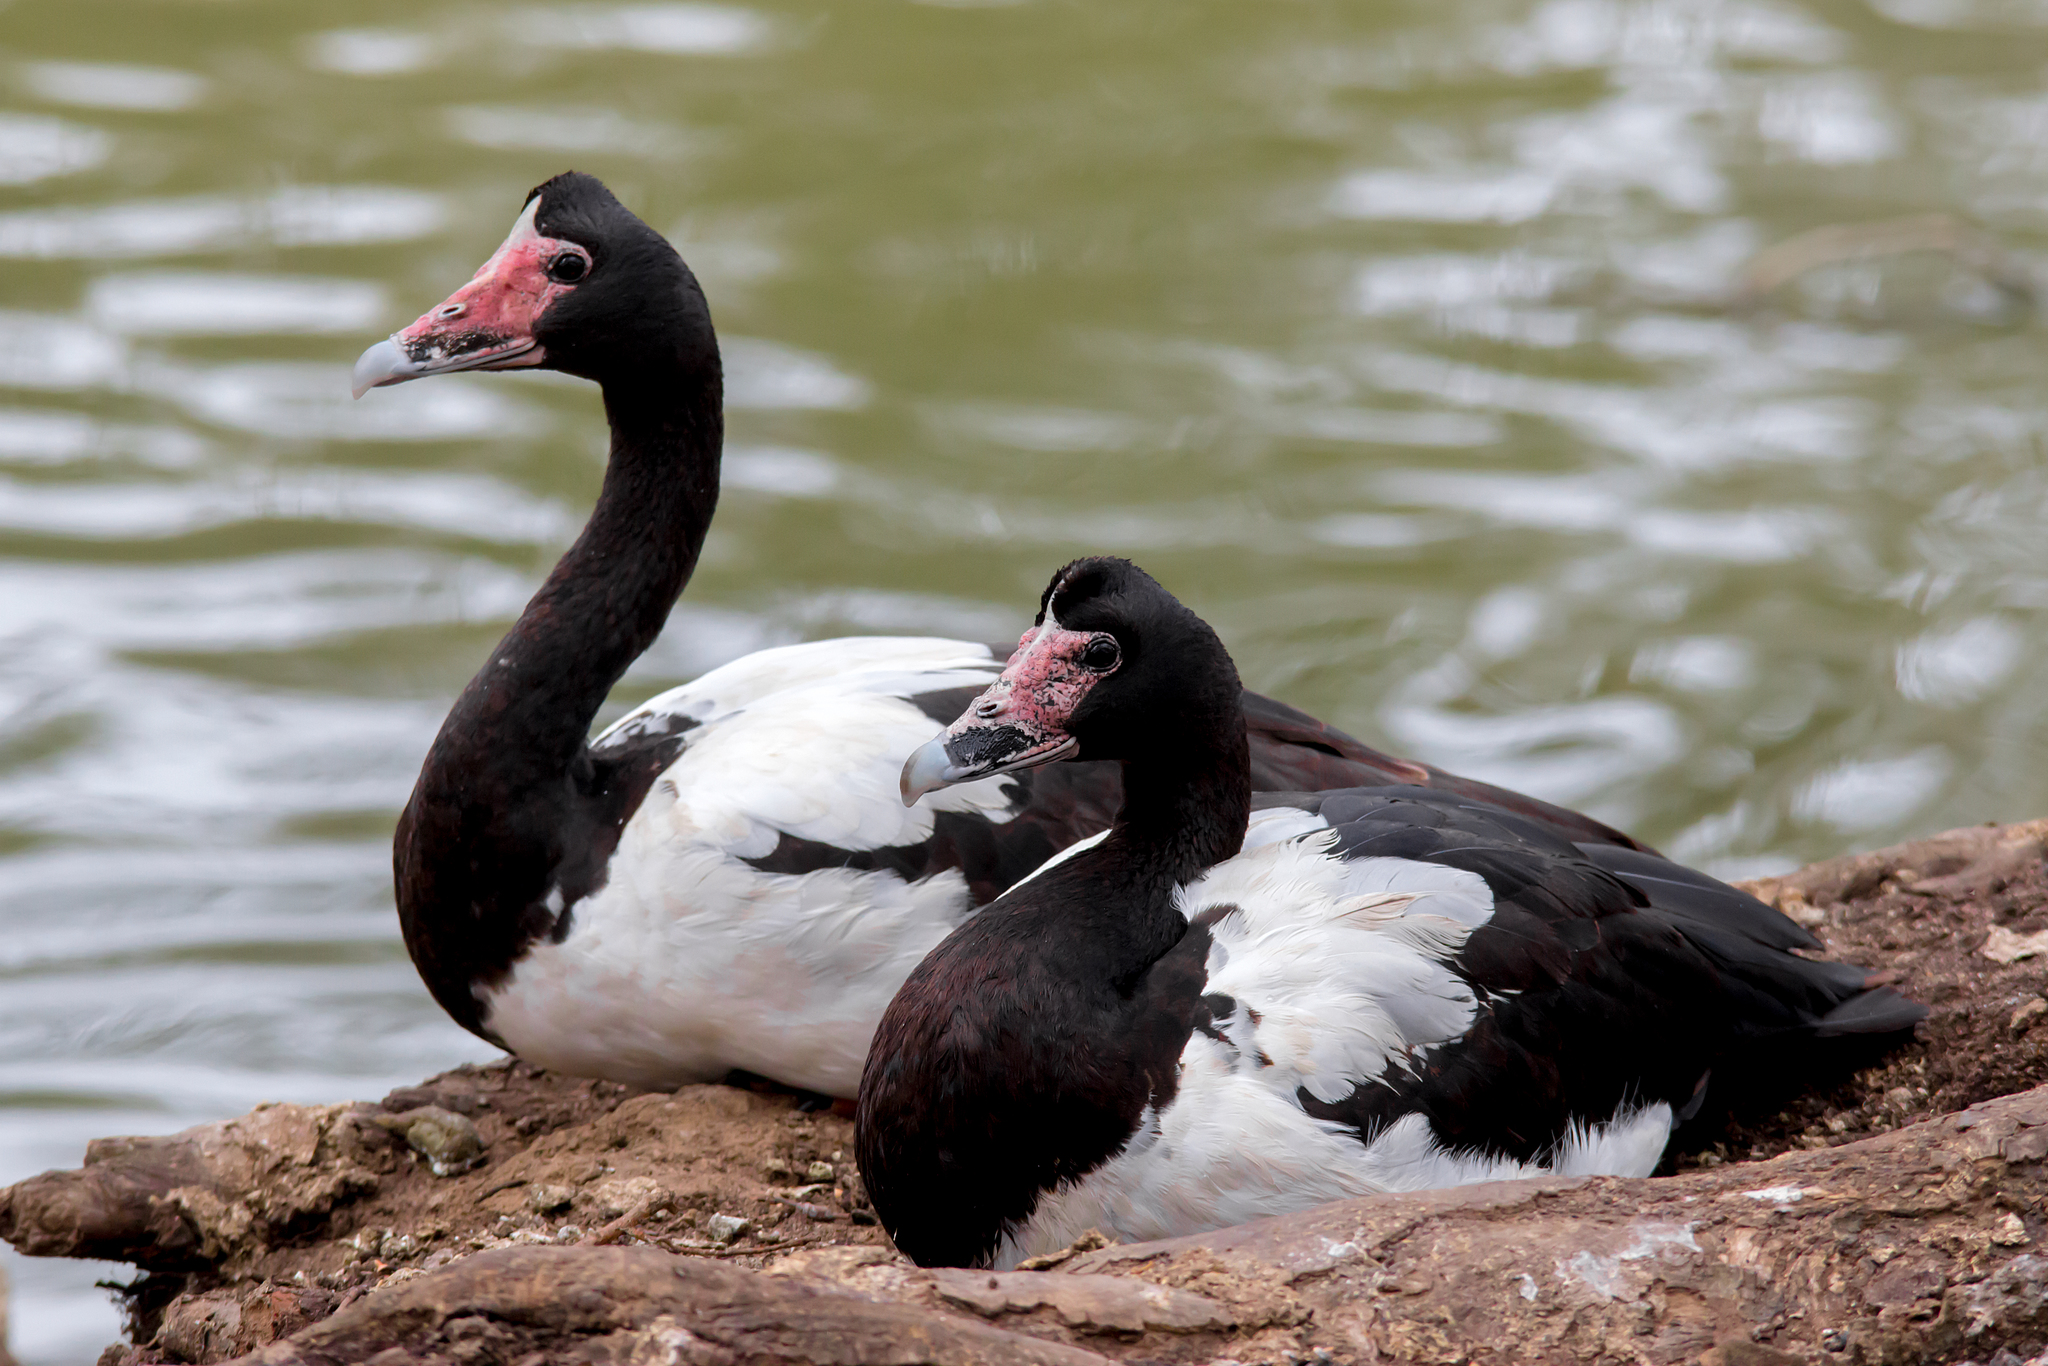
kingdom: Animalia
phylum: Chordata
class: Aves
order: Anseriformes
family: Anseranatidae
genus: Anseranas
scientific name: Anseranas semipalmata
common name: Magpie goose
